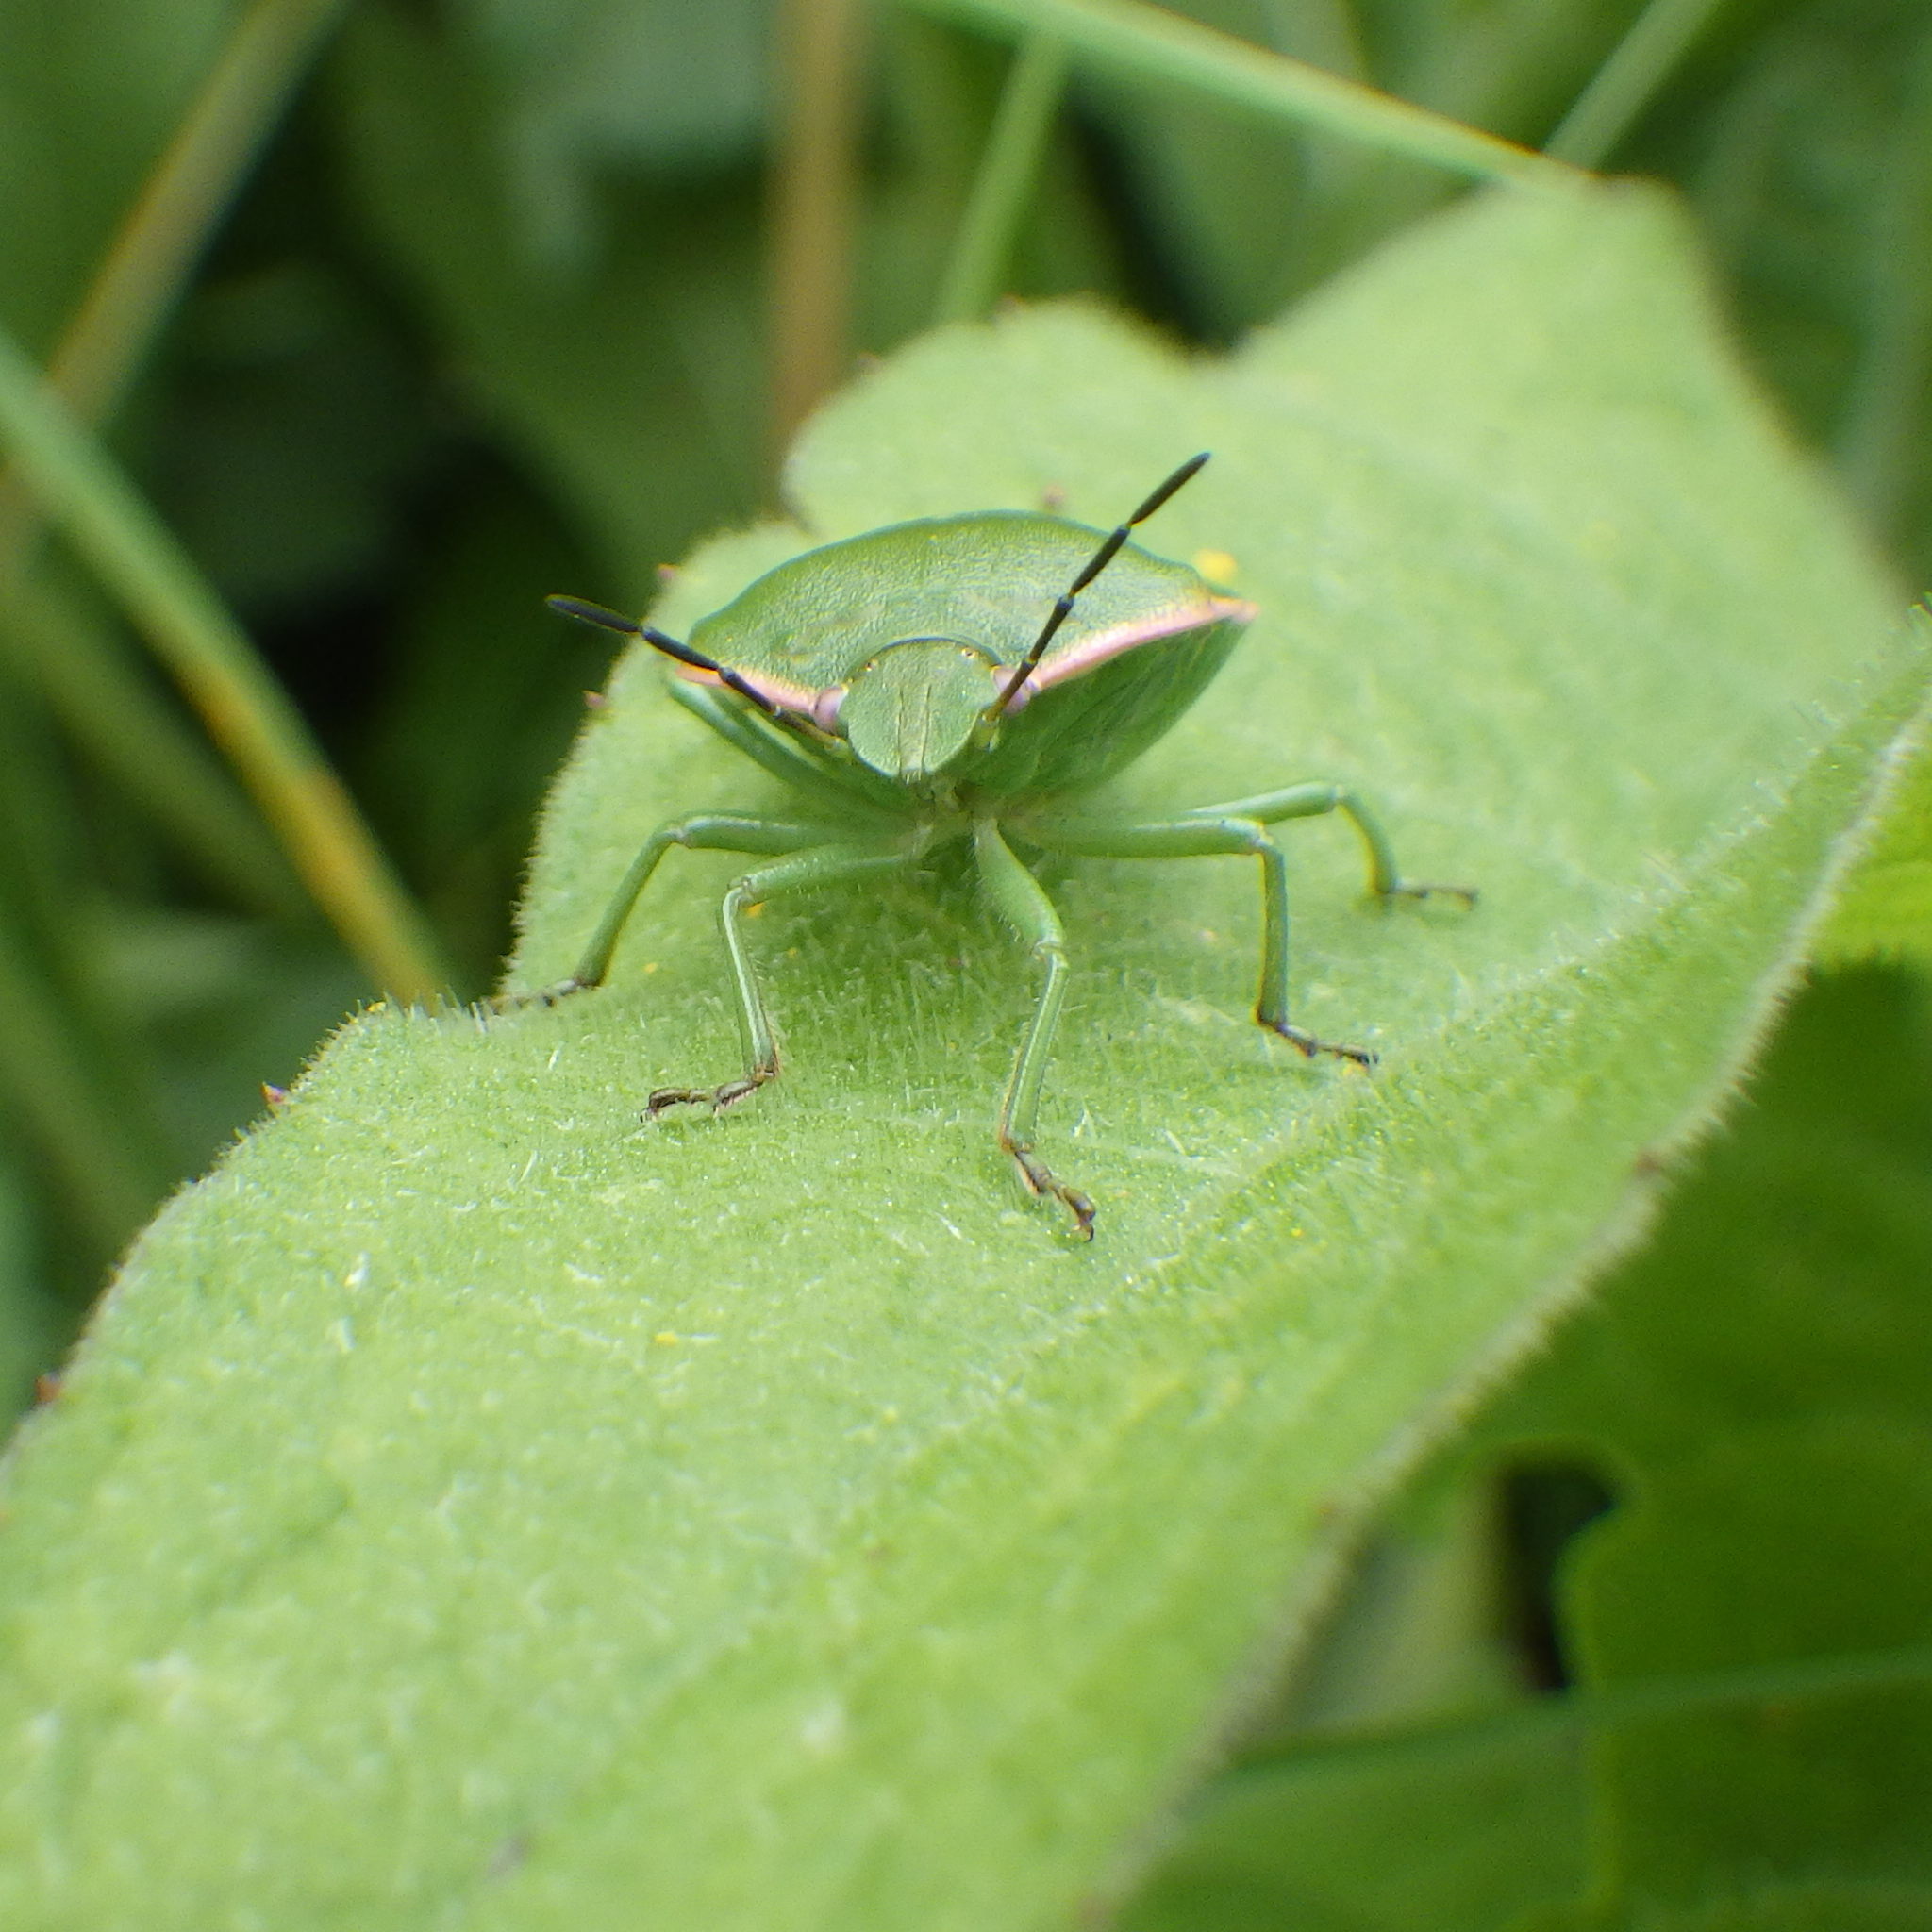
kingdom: Animalia
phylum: Arthropoda
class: Insecta
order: Hemiptera
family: Pentatomidae
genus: Chlorochroa
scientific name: Chlorochroa persimilis
